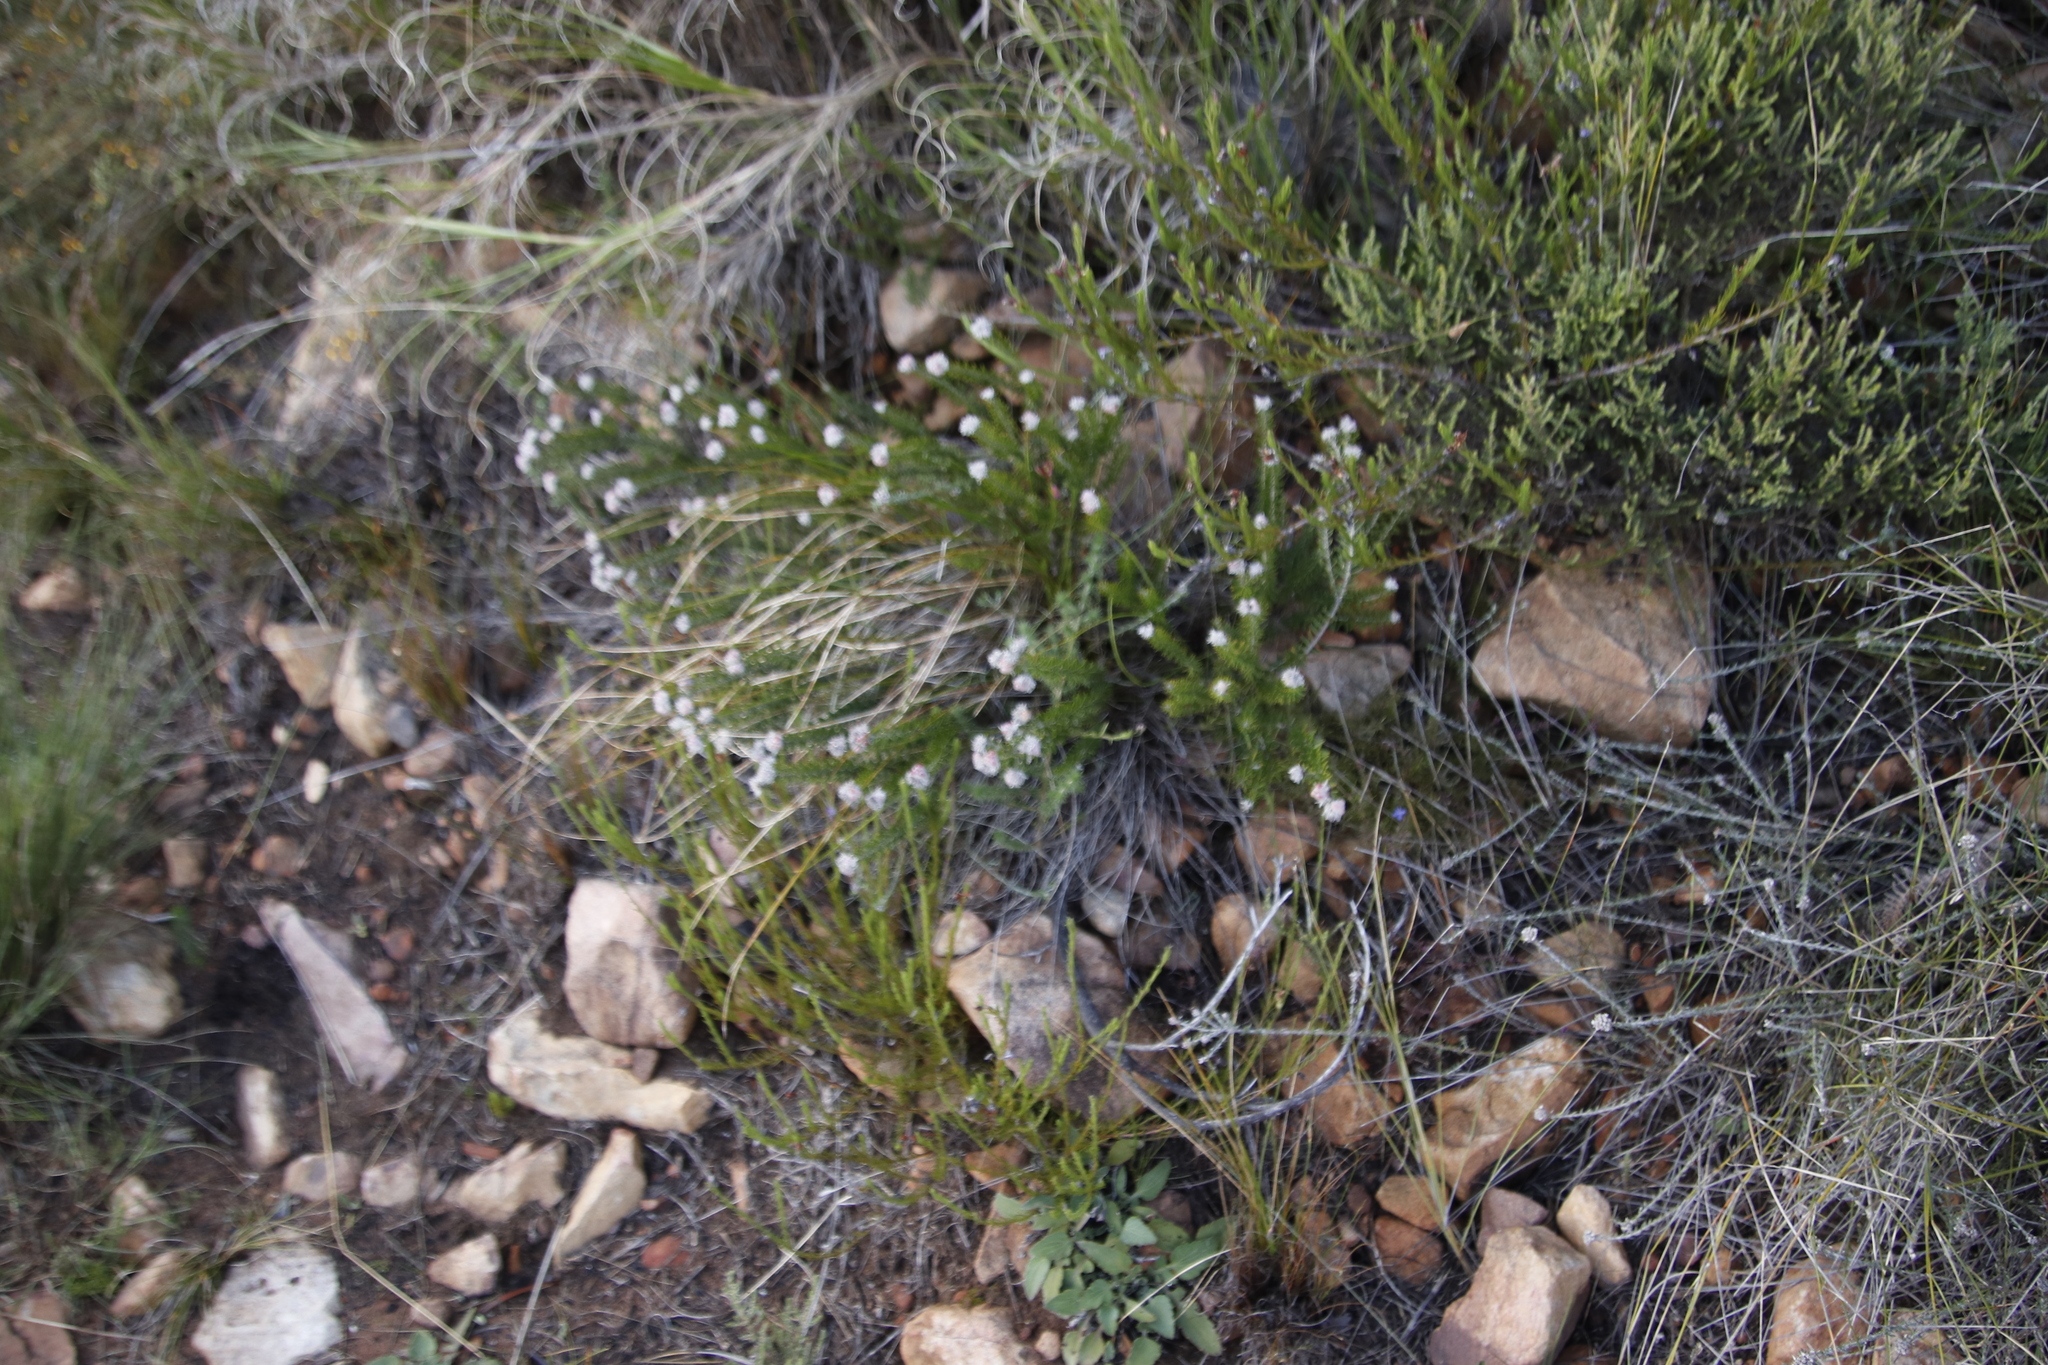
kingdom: Plantae
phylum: Tracheophyta
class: Magnoliopsida
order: Rosales
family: Rhamnaceae
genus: Trichocephalus
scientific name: Trichocephalus stipularis
